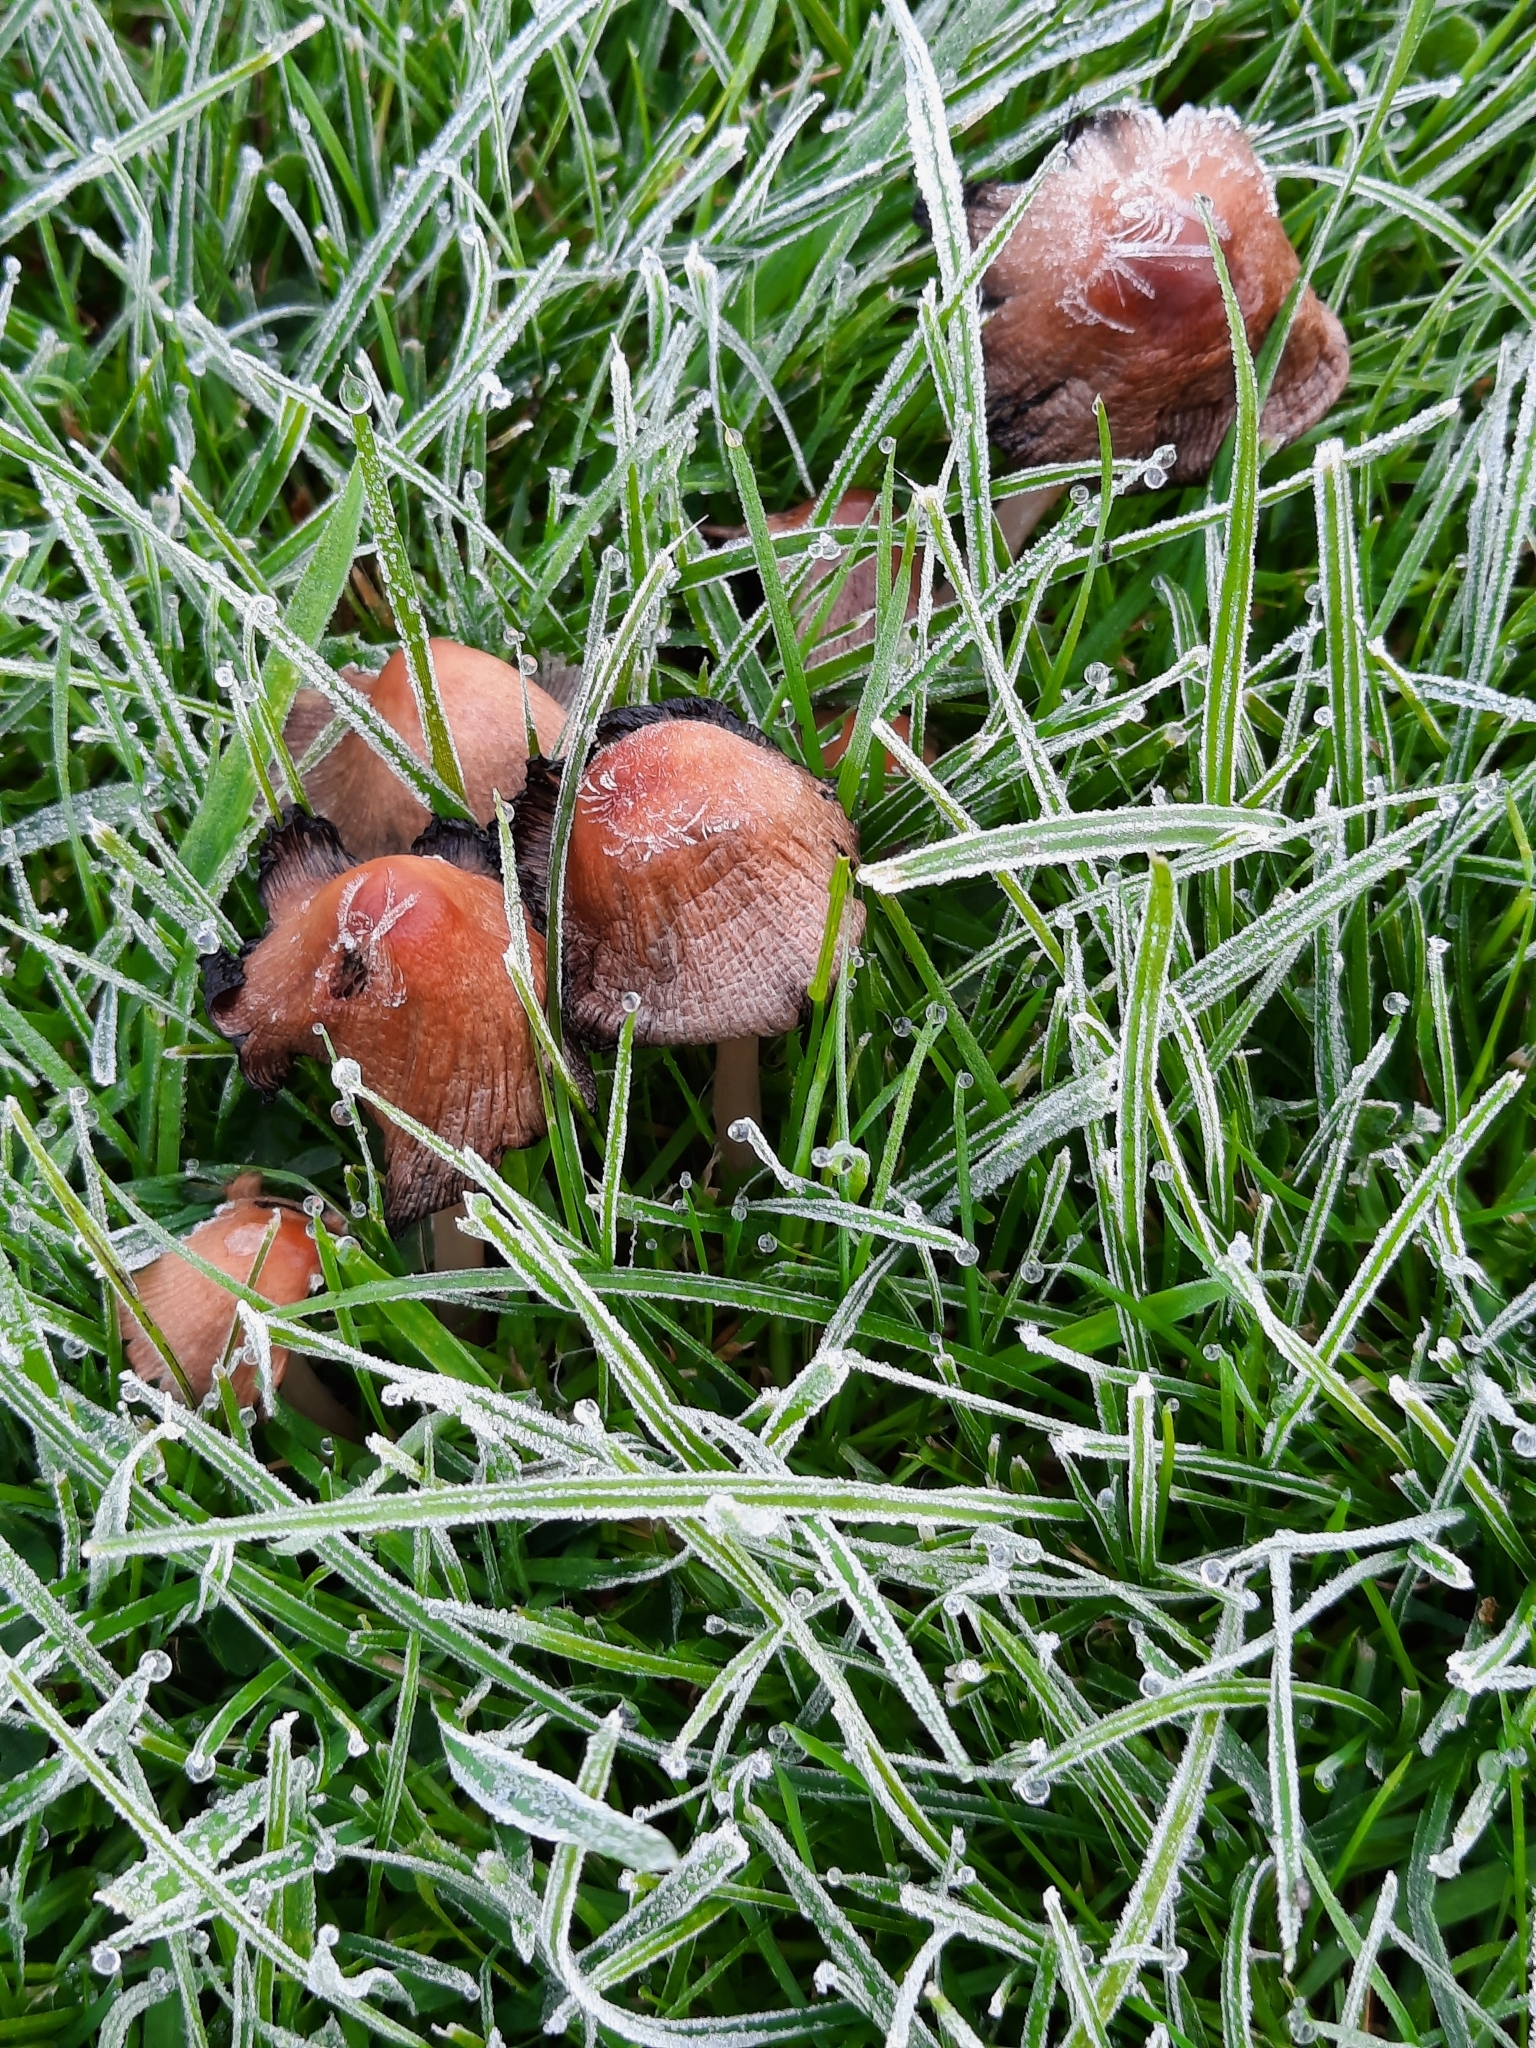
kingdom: Fungi
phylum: Basidiomycota
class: Agaricomycetes
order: Agaricales
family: Psathyrellaceae
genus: Coprinellus
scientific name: Coprinellus micaceus
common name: Glistening ink-cap
